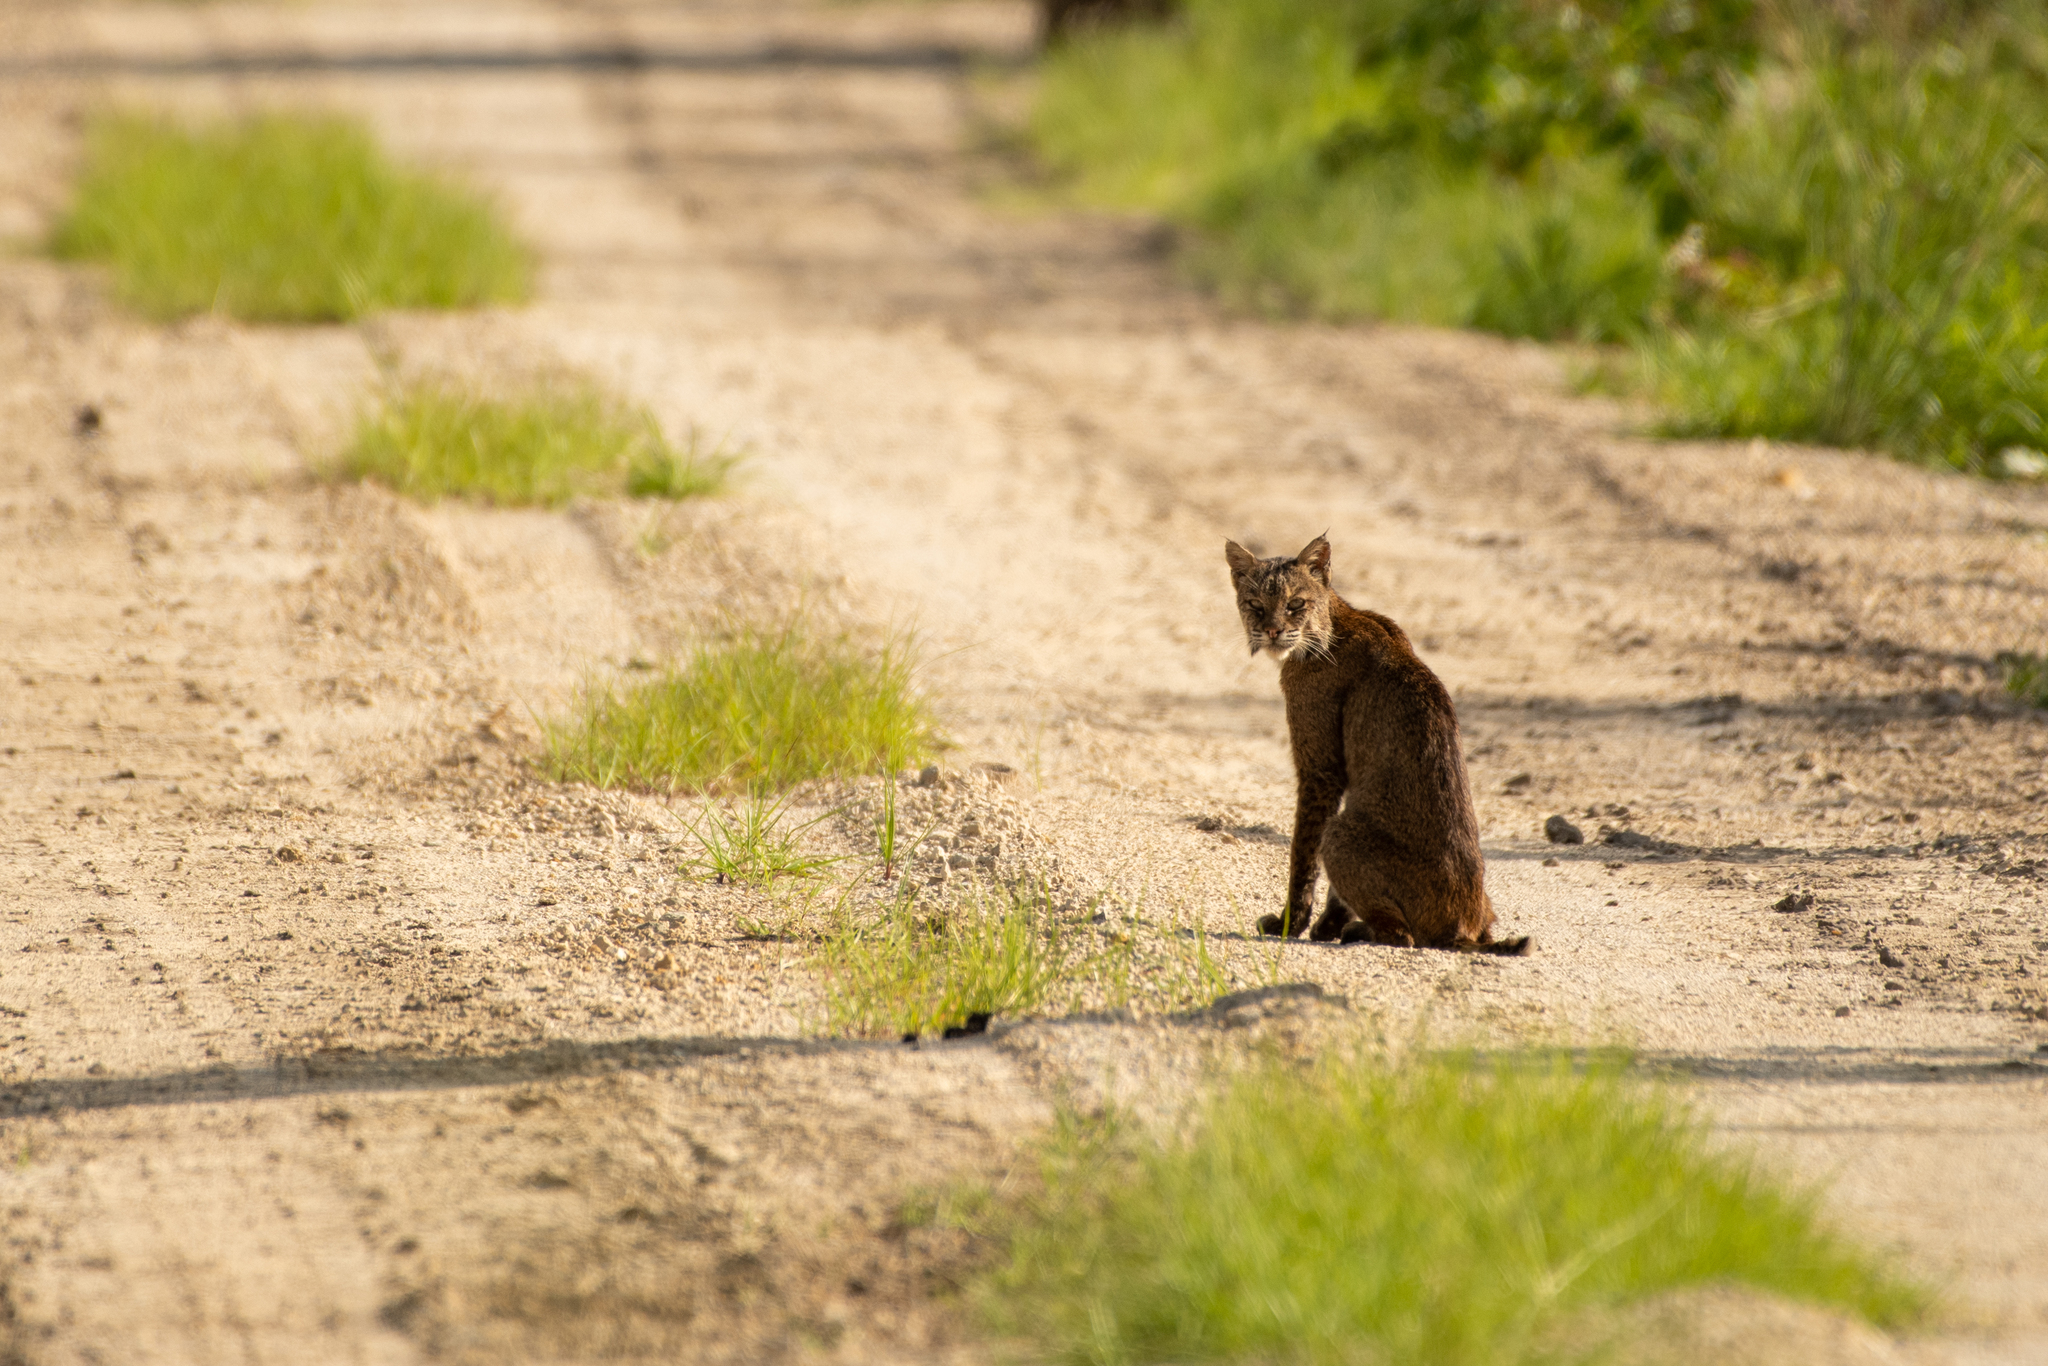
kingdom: Animalia
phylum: Chordata
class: Mammalia
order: Carnivora
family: Felidae
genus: Lynx
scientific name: Lynx rufus
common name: Bobcat
